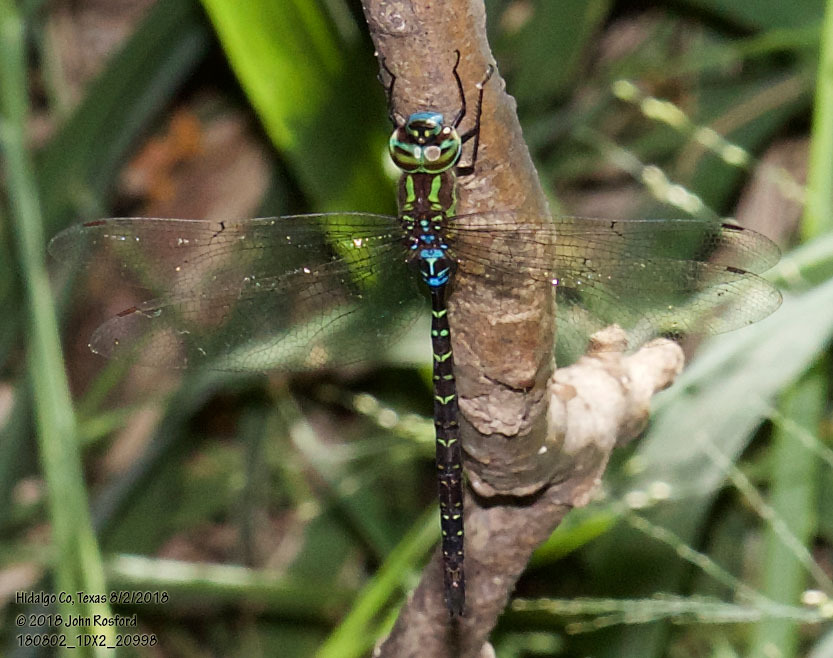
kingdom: Animalia
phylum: Arthropoda
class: Insecta
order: Odonata
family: Aeshnidae
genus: Rhionaeschna
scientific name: Rhionaeschna psilus
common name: Turquoise-tipped darner
